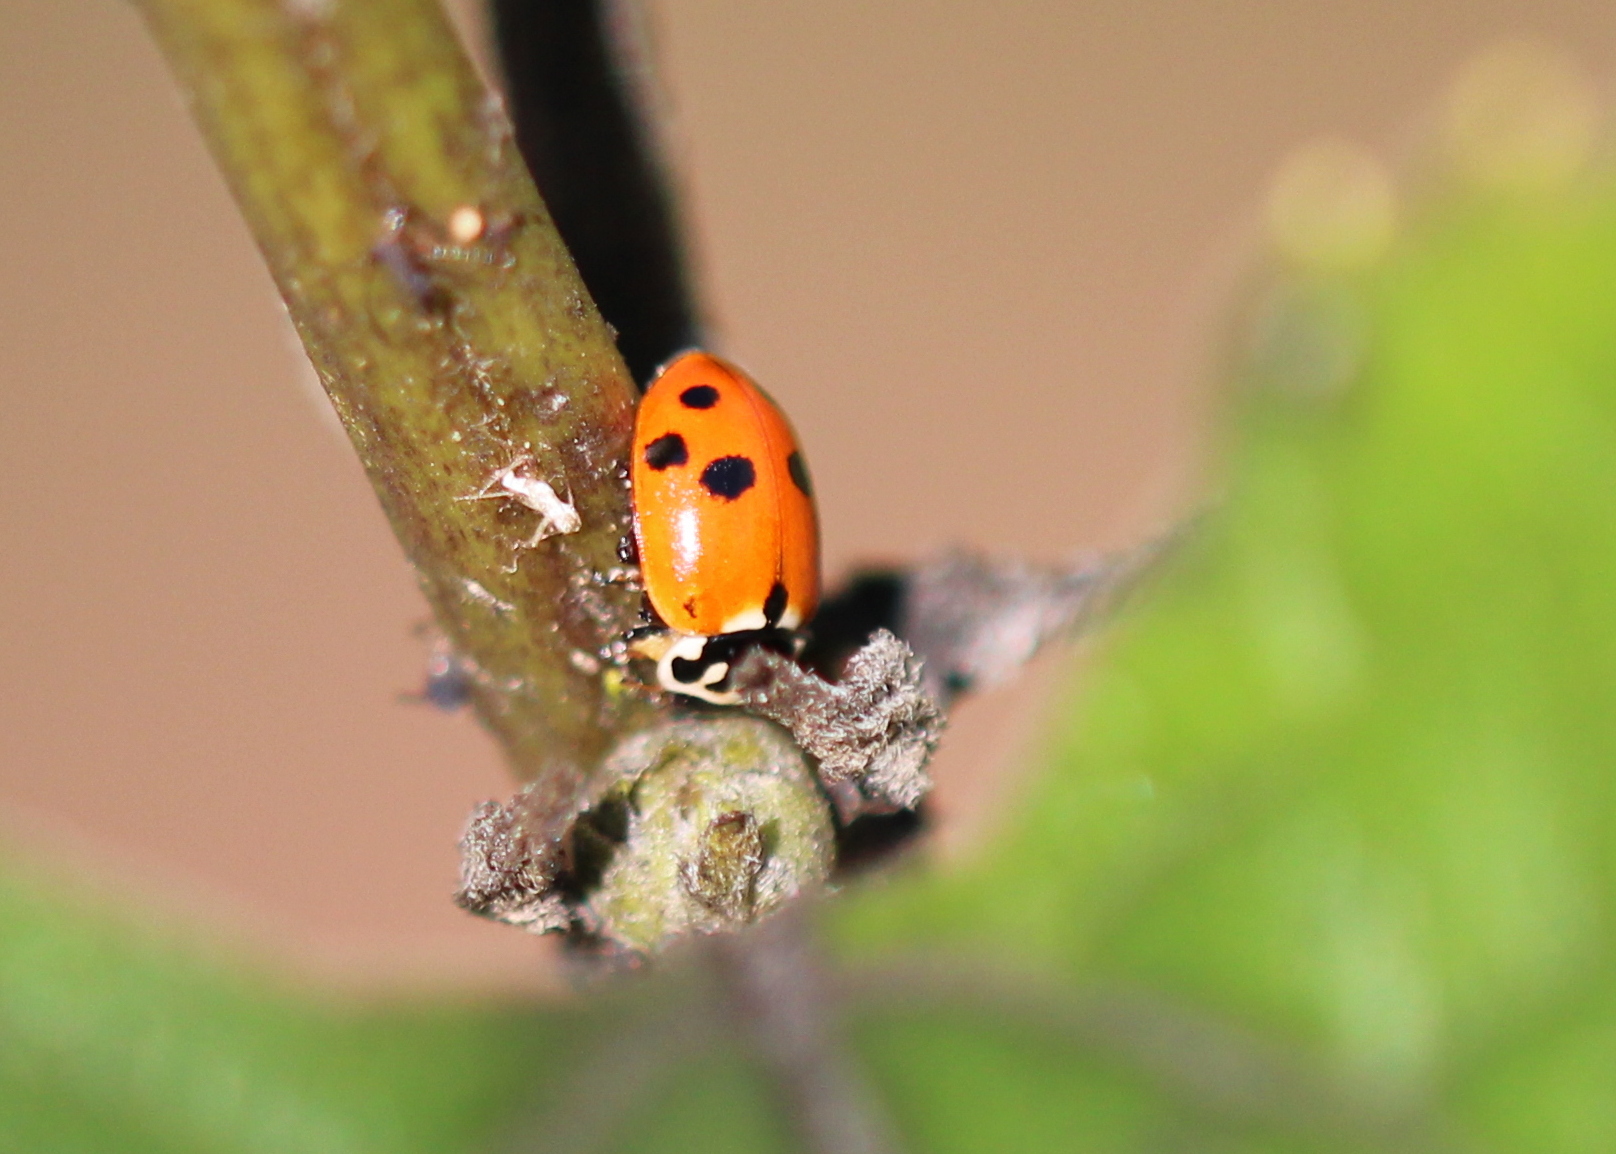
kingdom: Animalia
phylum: Arthropoda
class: Insecta
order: Coleoptera
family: Coccinellidae
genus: Hippodamia
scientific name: Hippodamia variegata
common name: Ladybird beetle
